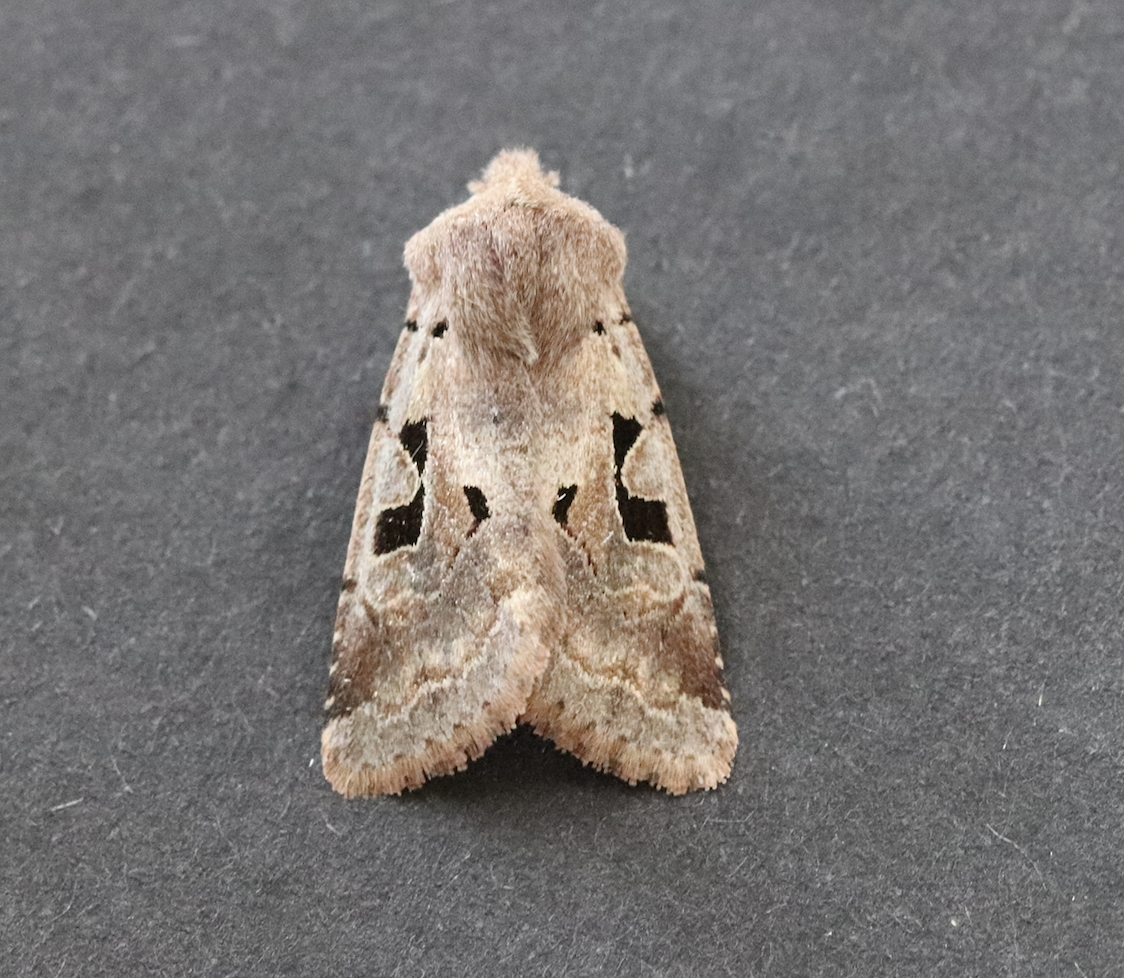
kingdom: Animalia
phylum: Arthropoda
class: Insecta
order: Lepidoptera
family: Noctuidae
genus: Orthosia
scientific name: Orthosia gothica
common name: Hebrew character
